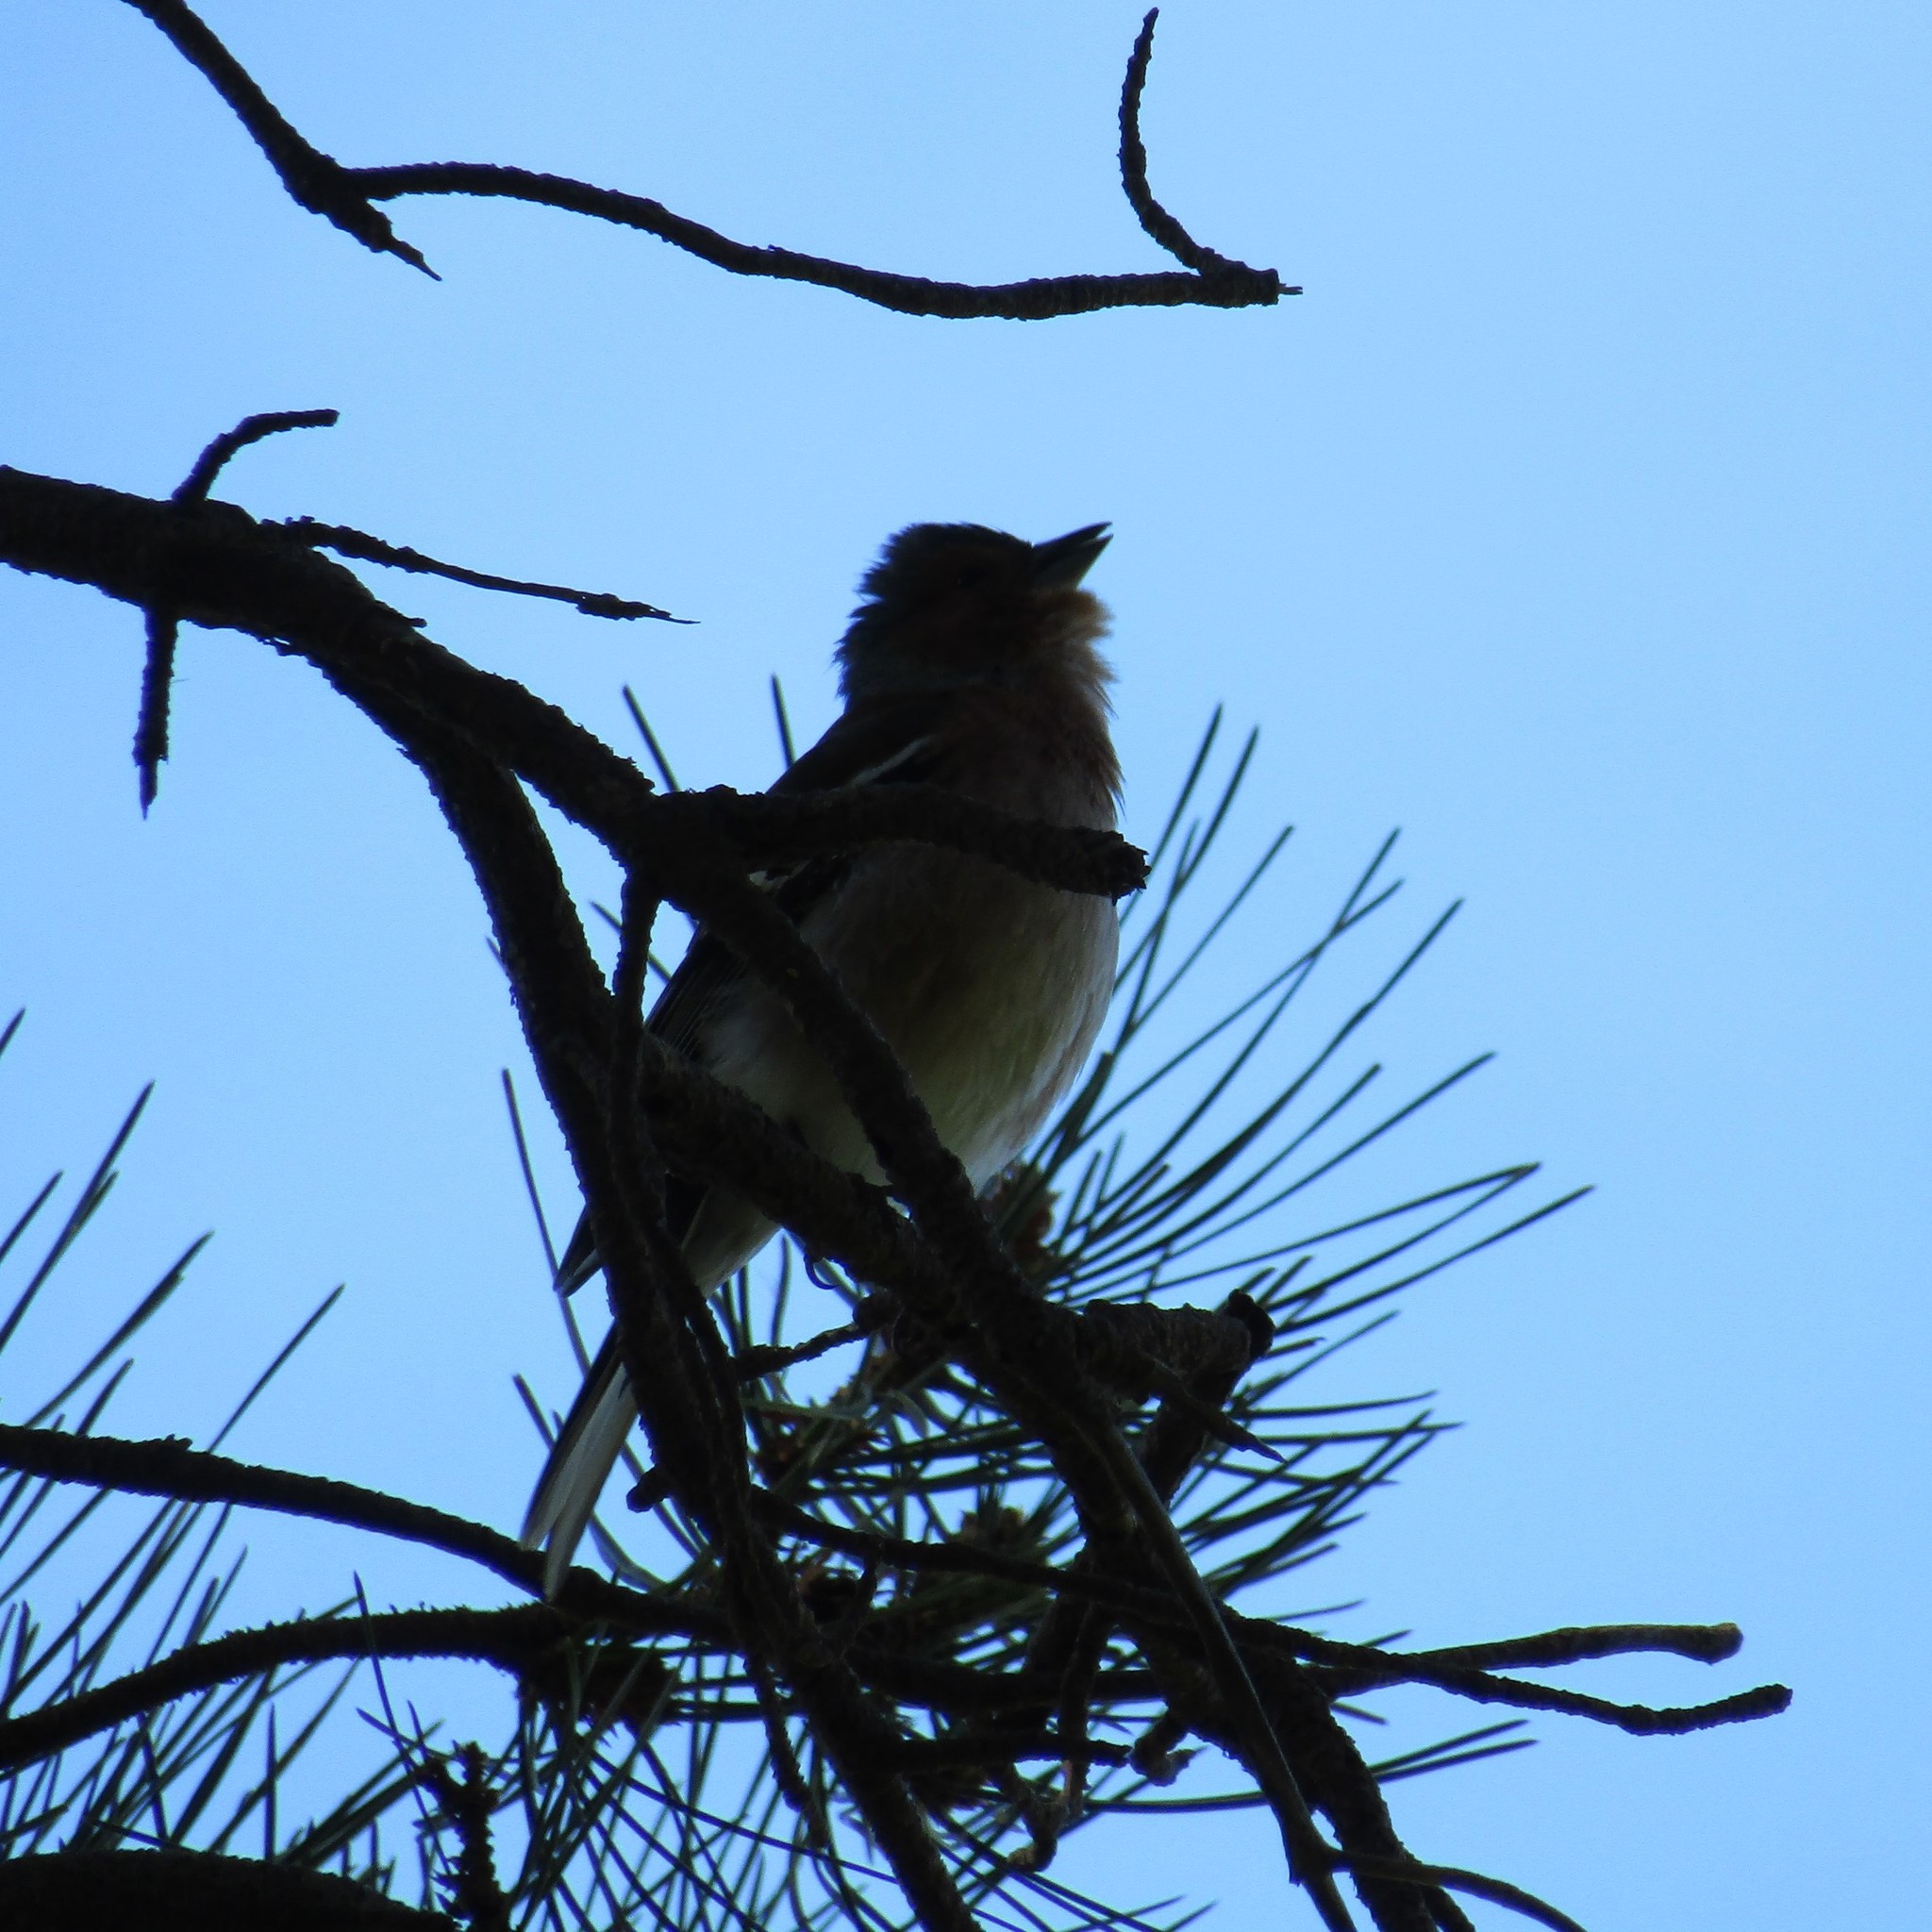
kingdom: Animalia
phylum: Chordata
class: Aves
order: Passeriformes
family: Fringillidae
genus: Fringilla
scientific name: Fringilla coelebs
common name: Common chaffinch
